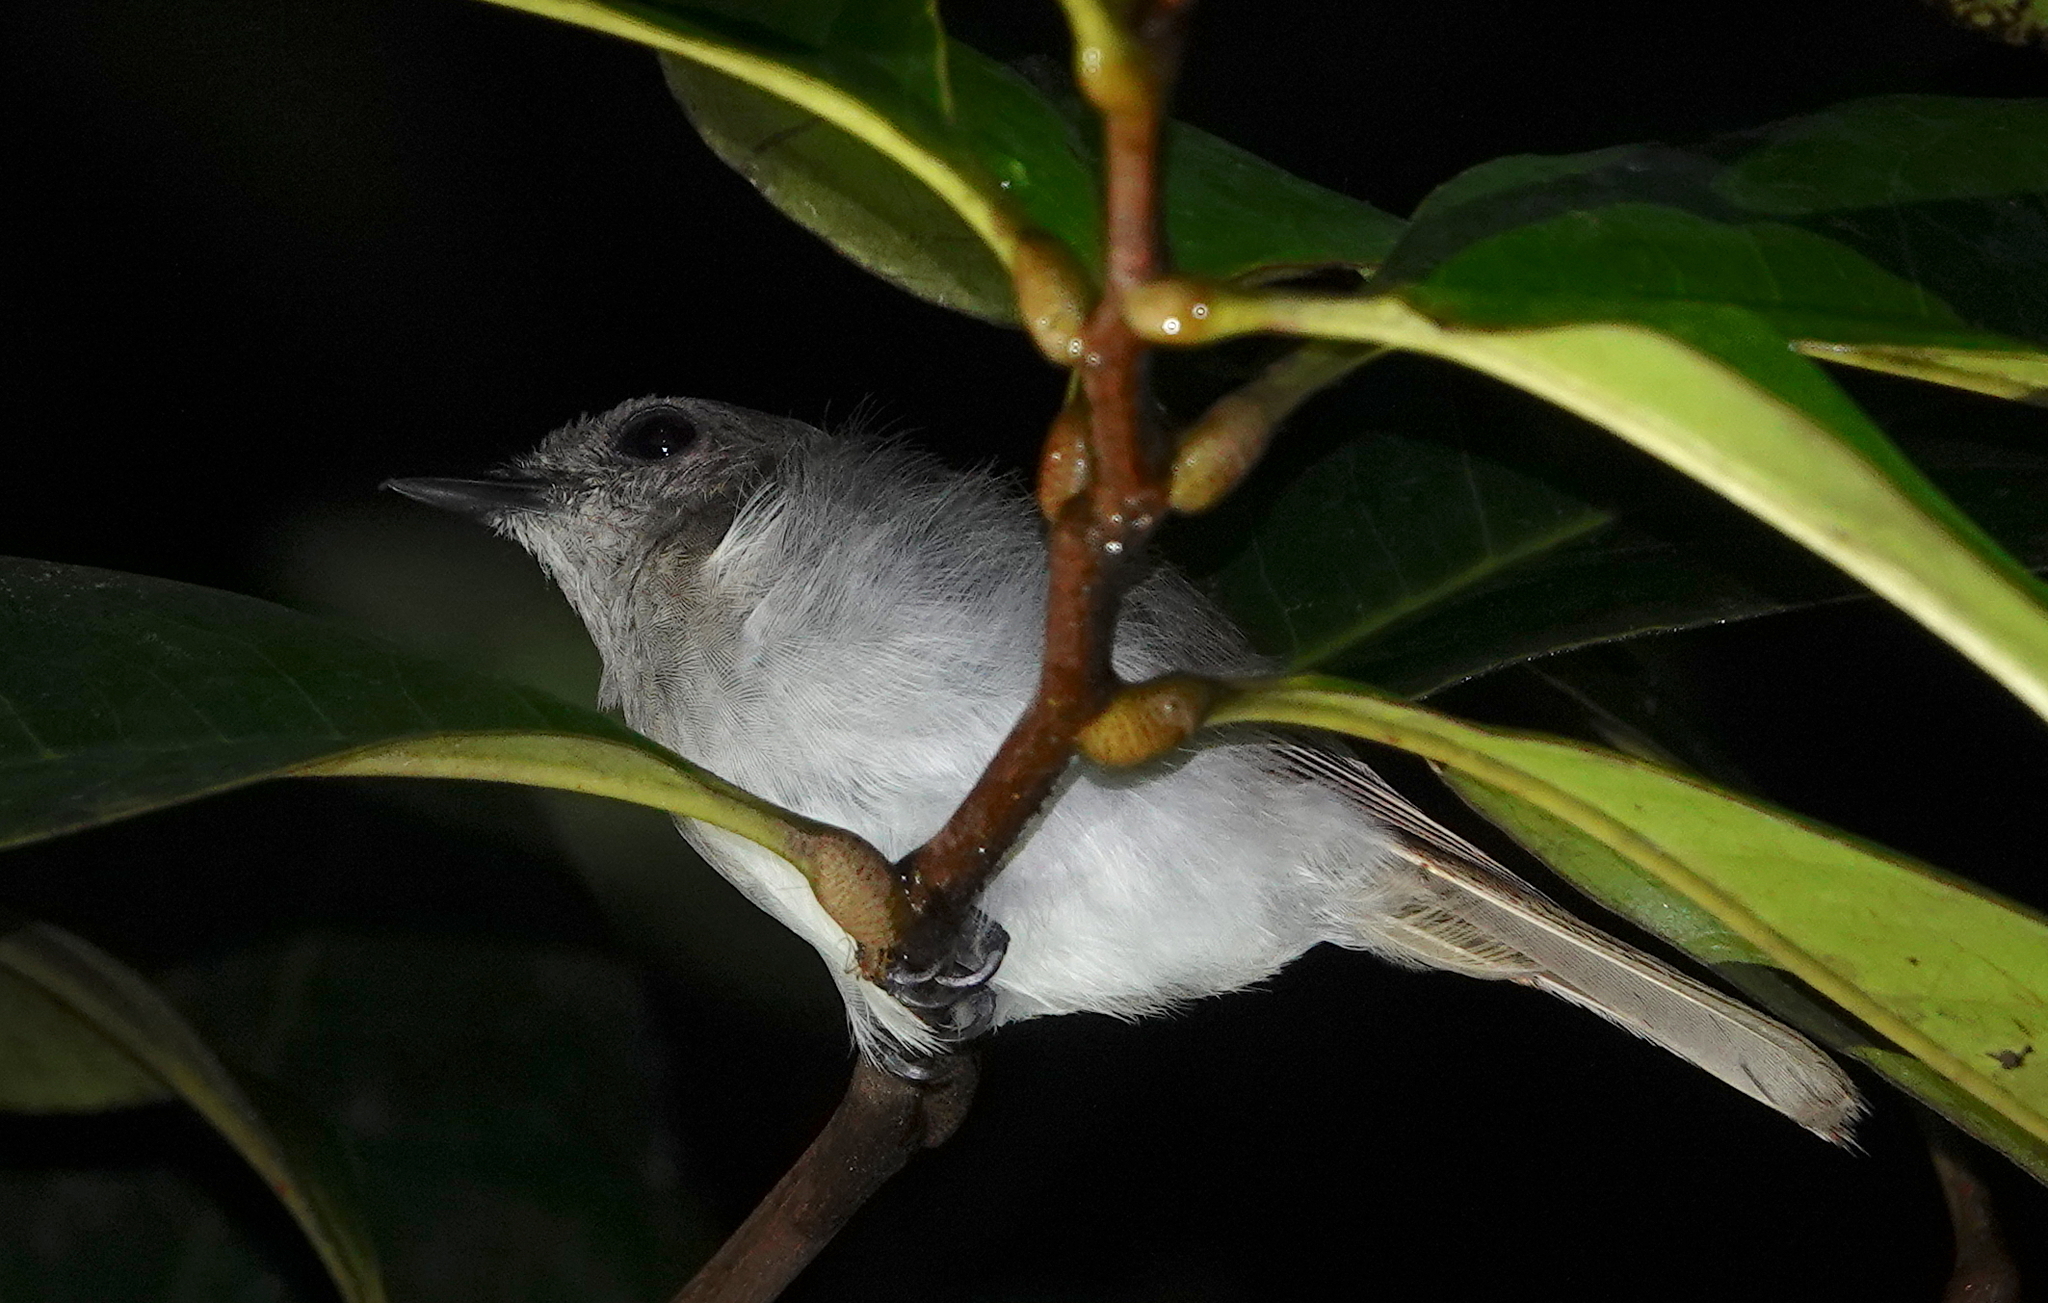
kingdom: Animalia
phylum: Chordata
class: Aves
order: Passeriformes
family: Pellorneidae
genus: Malacopteron
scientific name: Malacopteron affine
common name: Sooty-capped babbler
